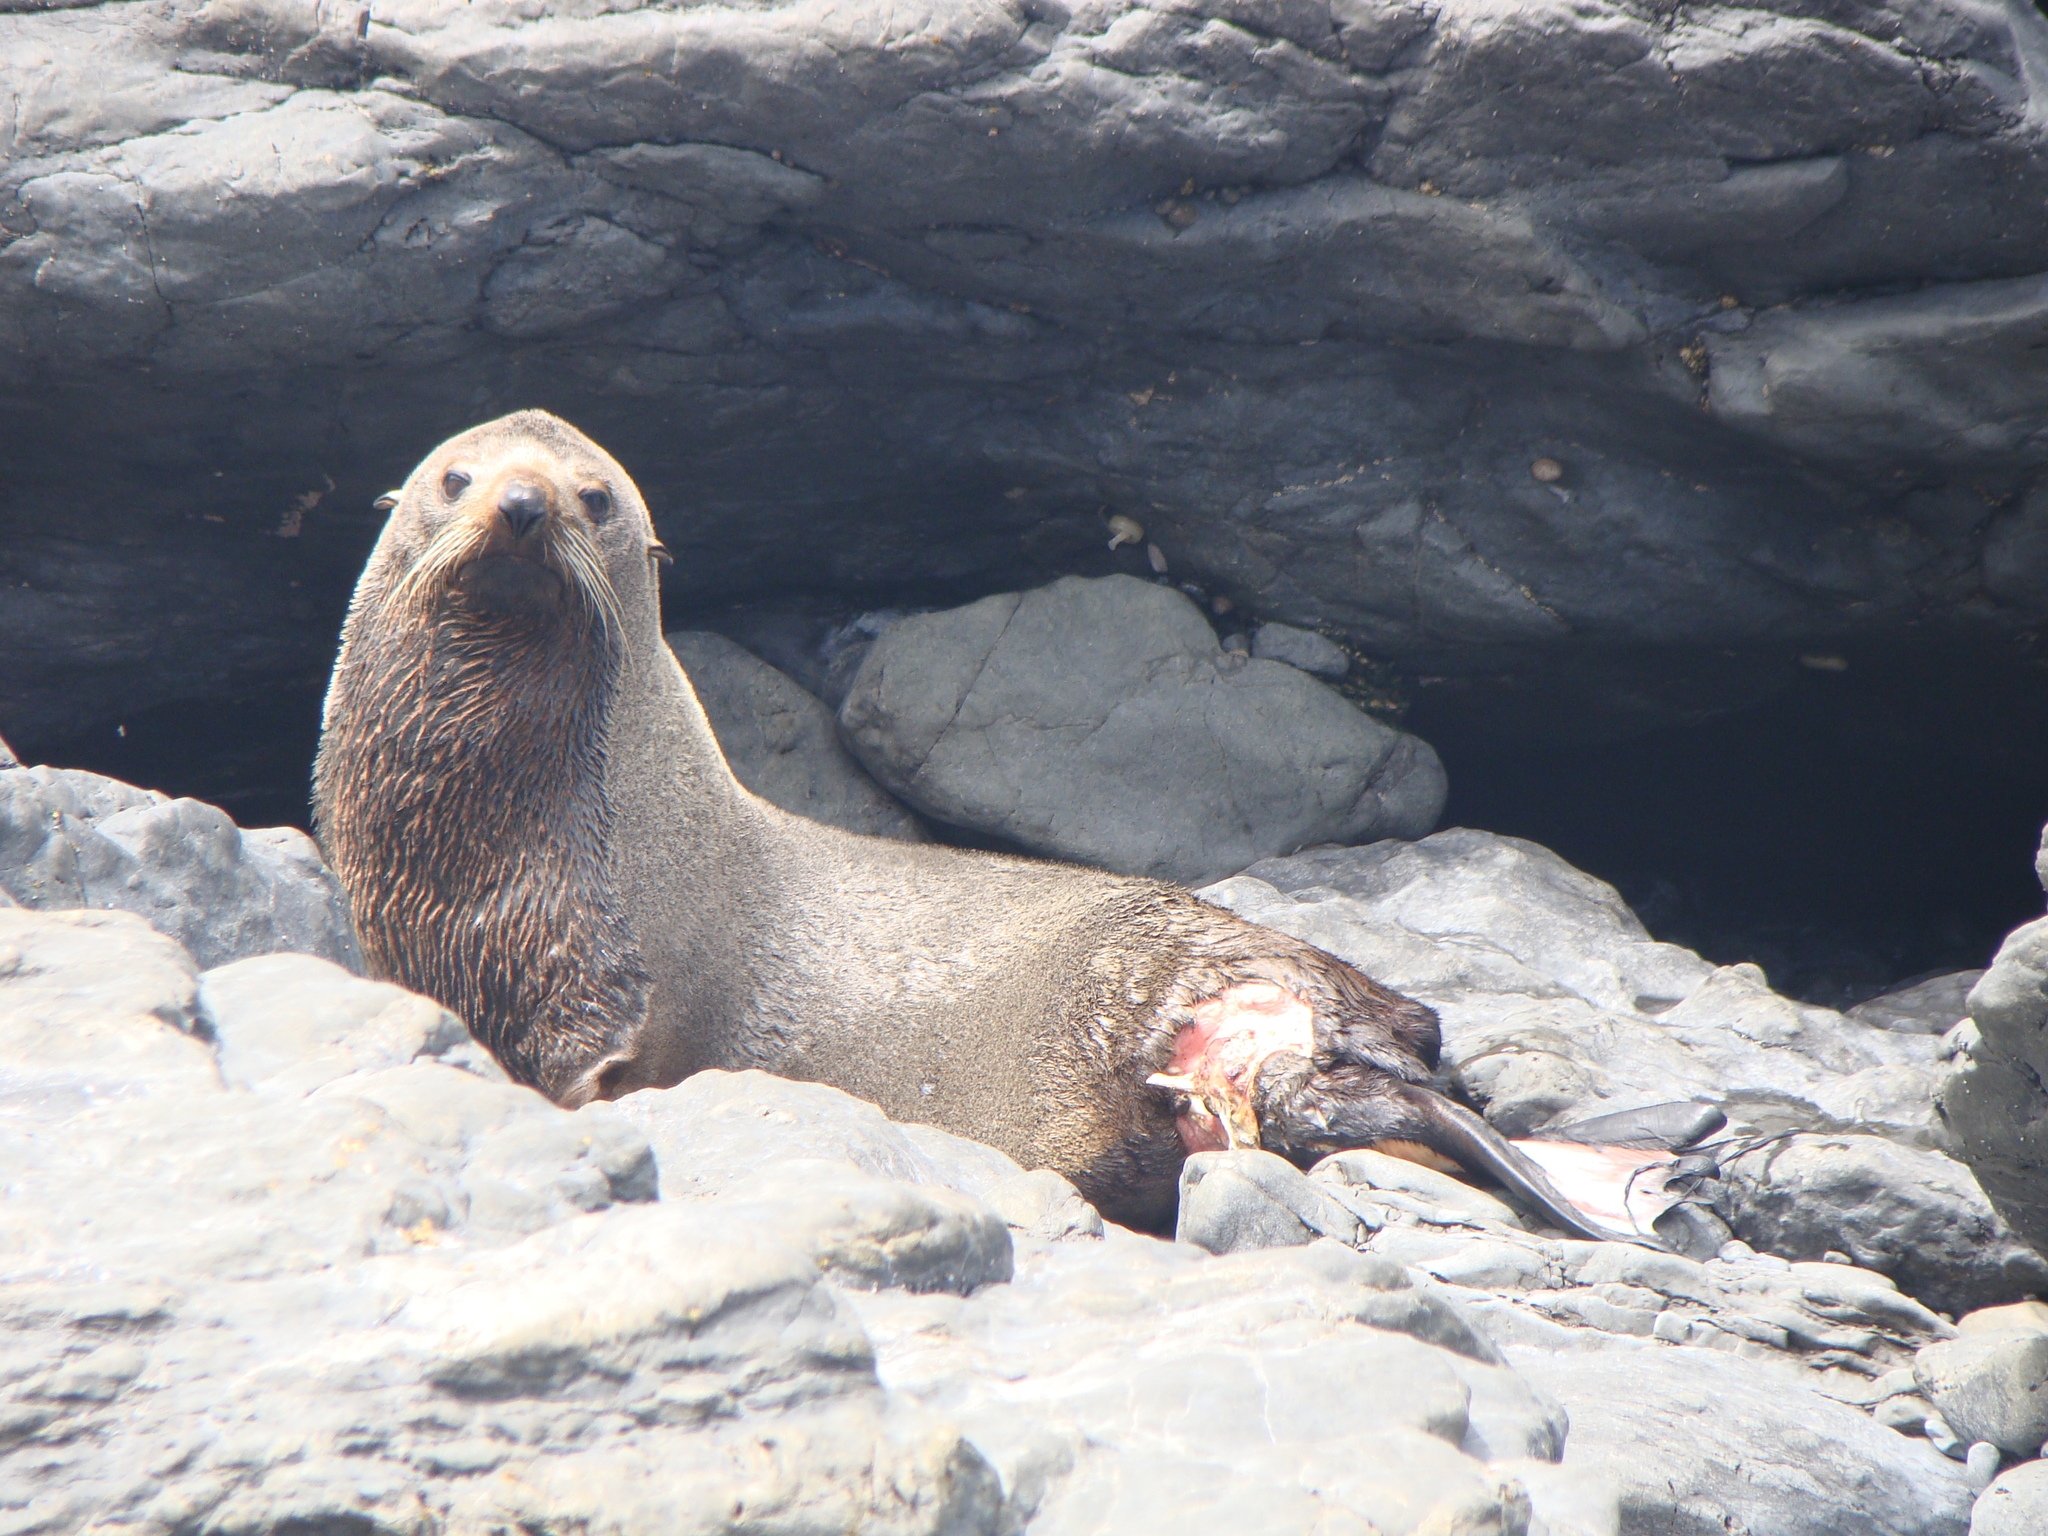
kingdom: Animalia
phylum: Chordata
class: Mammalia
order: Carnivora
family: Otariidae
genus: Arctocephalus
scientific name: Arctocephalus forsteri
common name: New zealand fur seal
